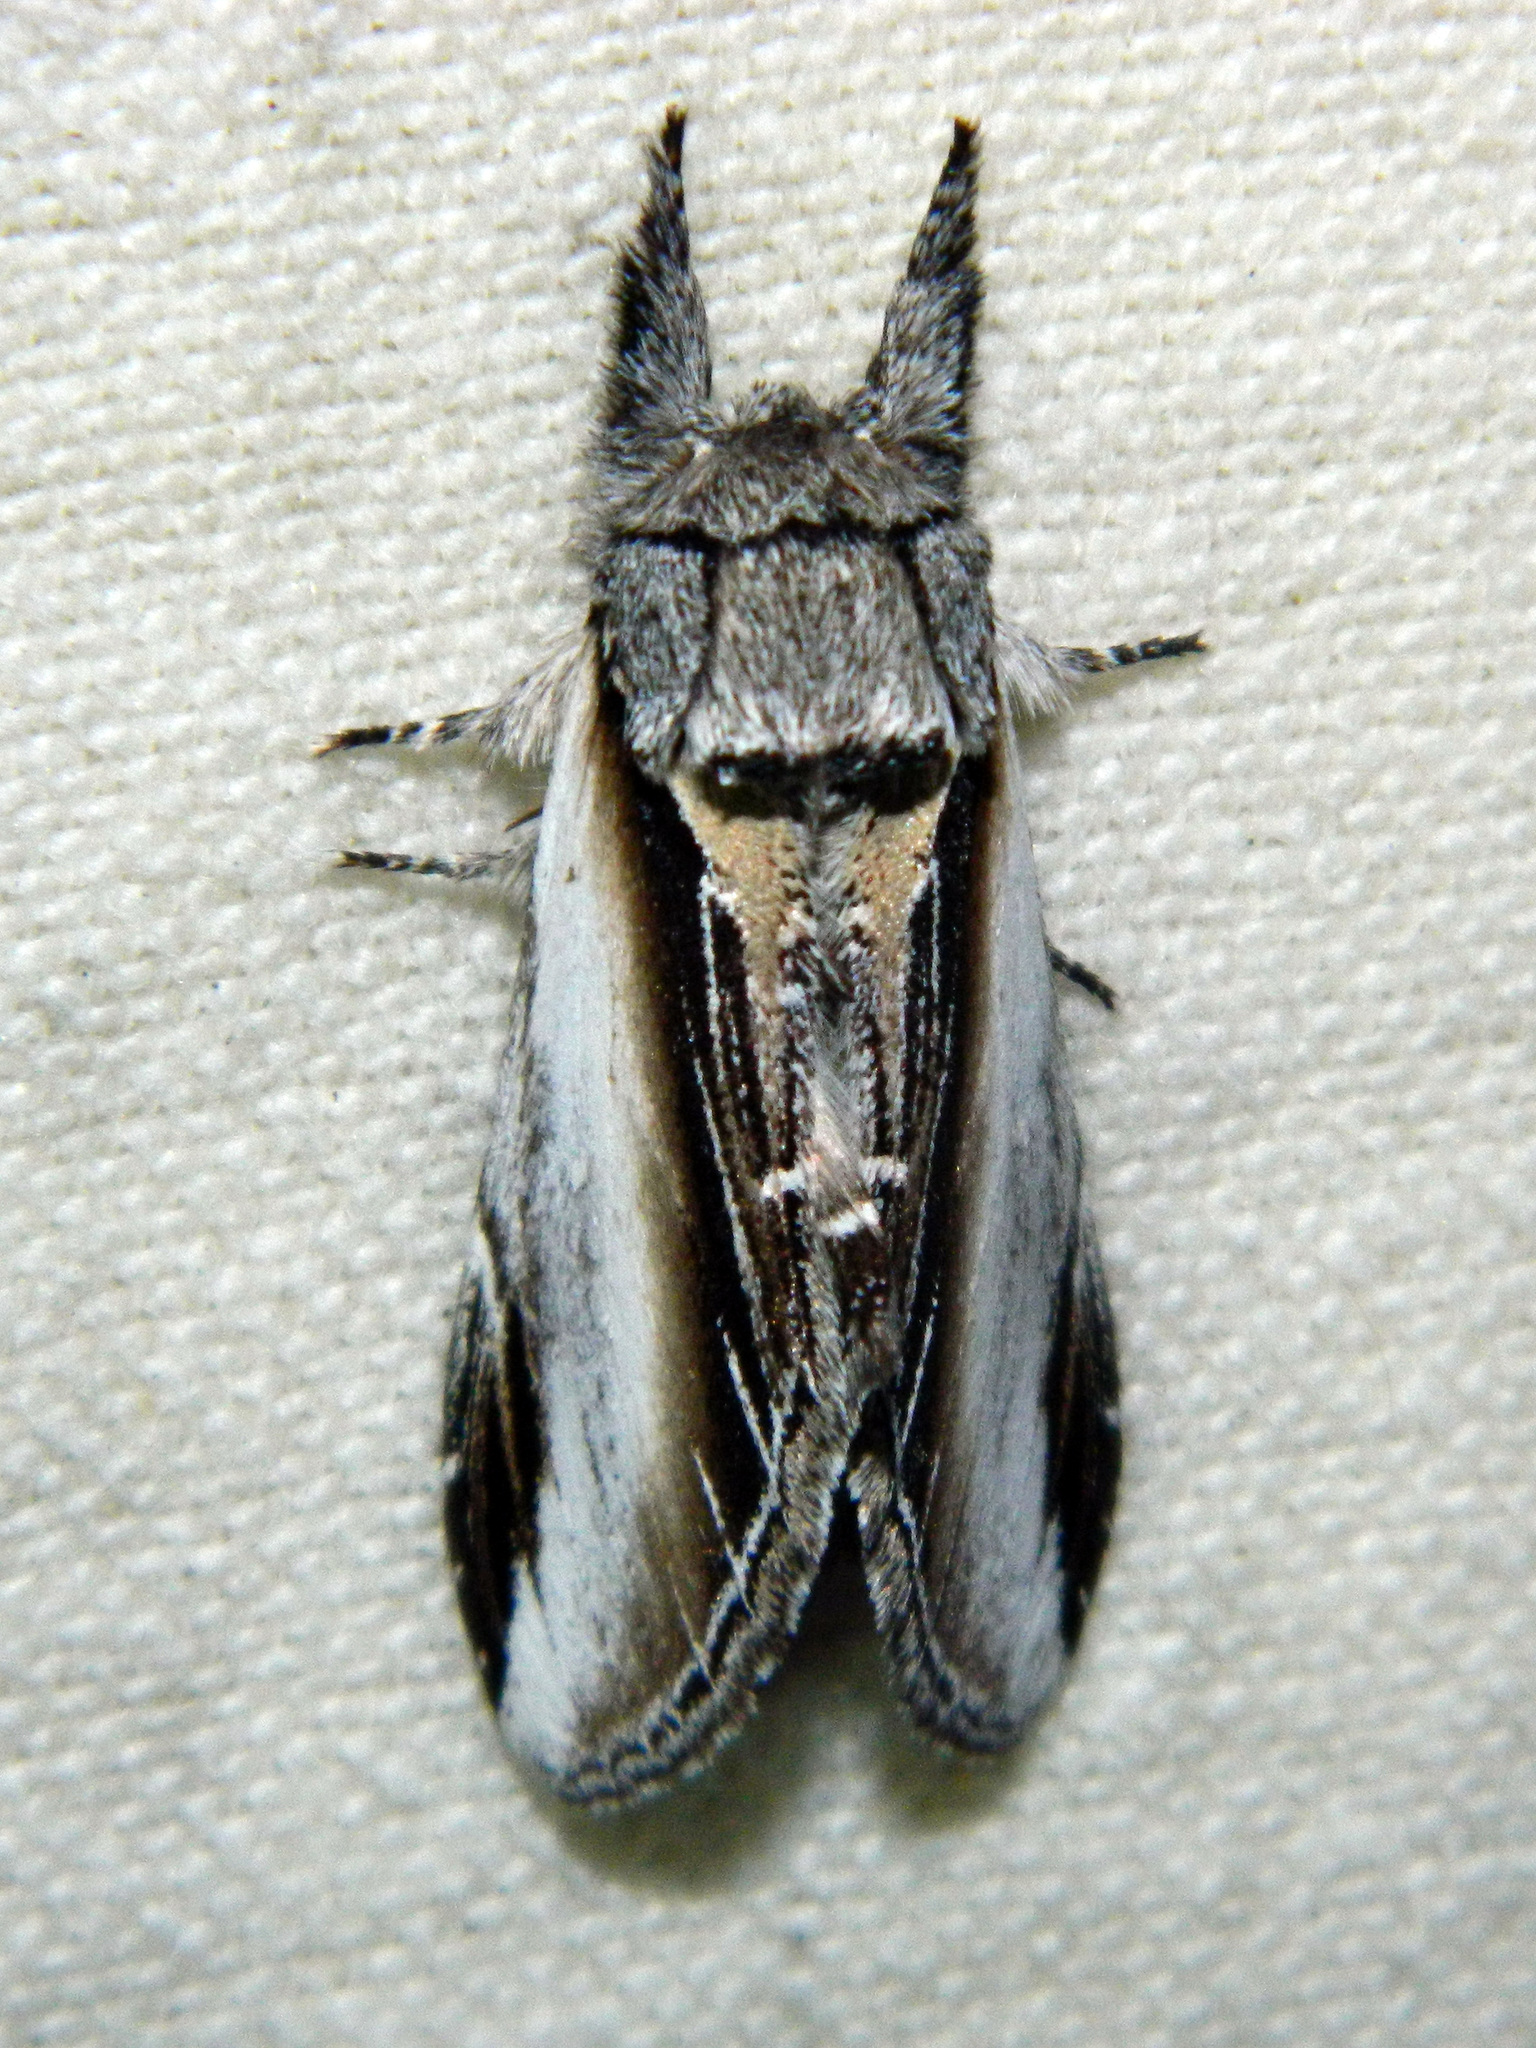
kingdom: Animalia
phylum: Arthropoda
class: Insecta
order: Lepidoptera
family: Notodontidae
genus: Pheosia
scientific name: Pheosia rimosa
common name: Black-rimmed prominent
